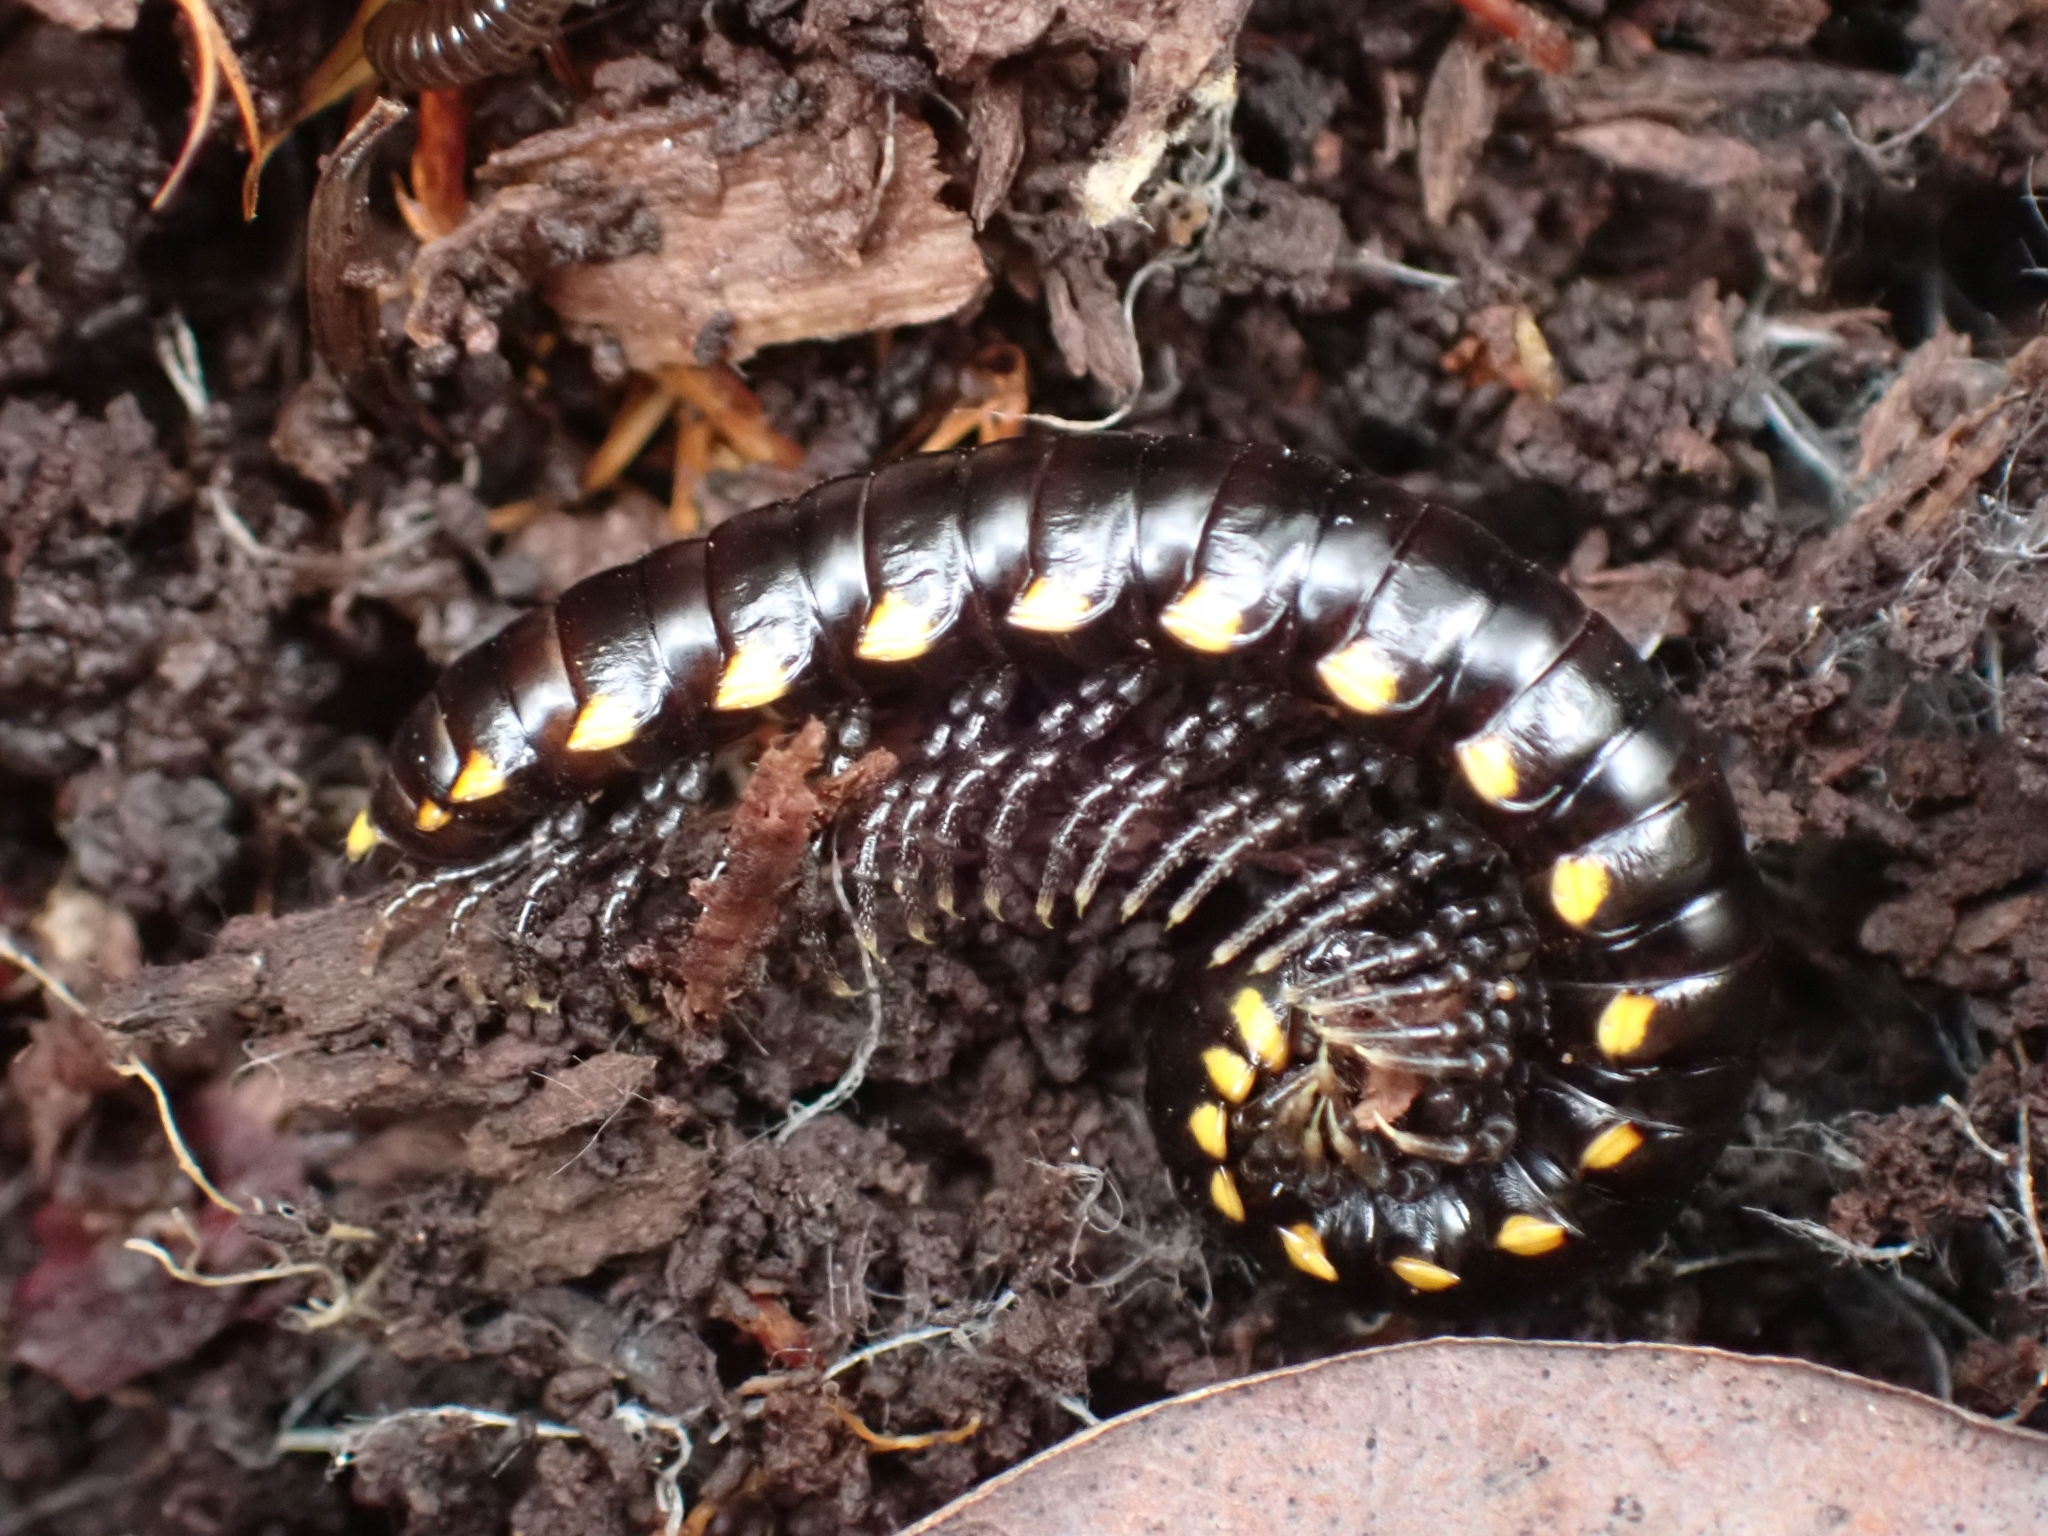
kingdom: Animalia
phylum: Arthropoda
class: Diplopoda
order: Polydesmida
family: Xystodesmidae
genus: Harpaphe
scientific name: Harpaphe haydeniana
